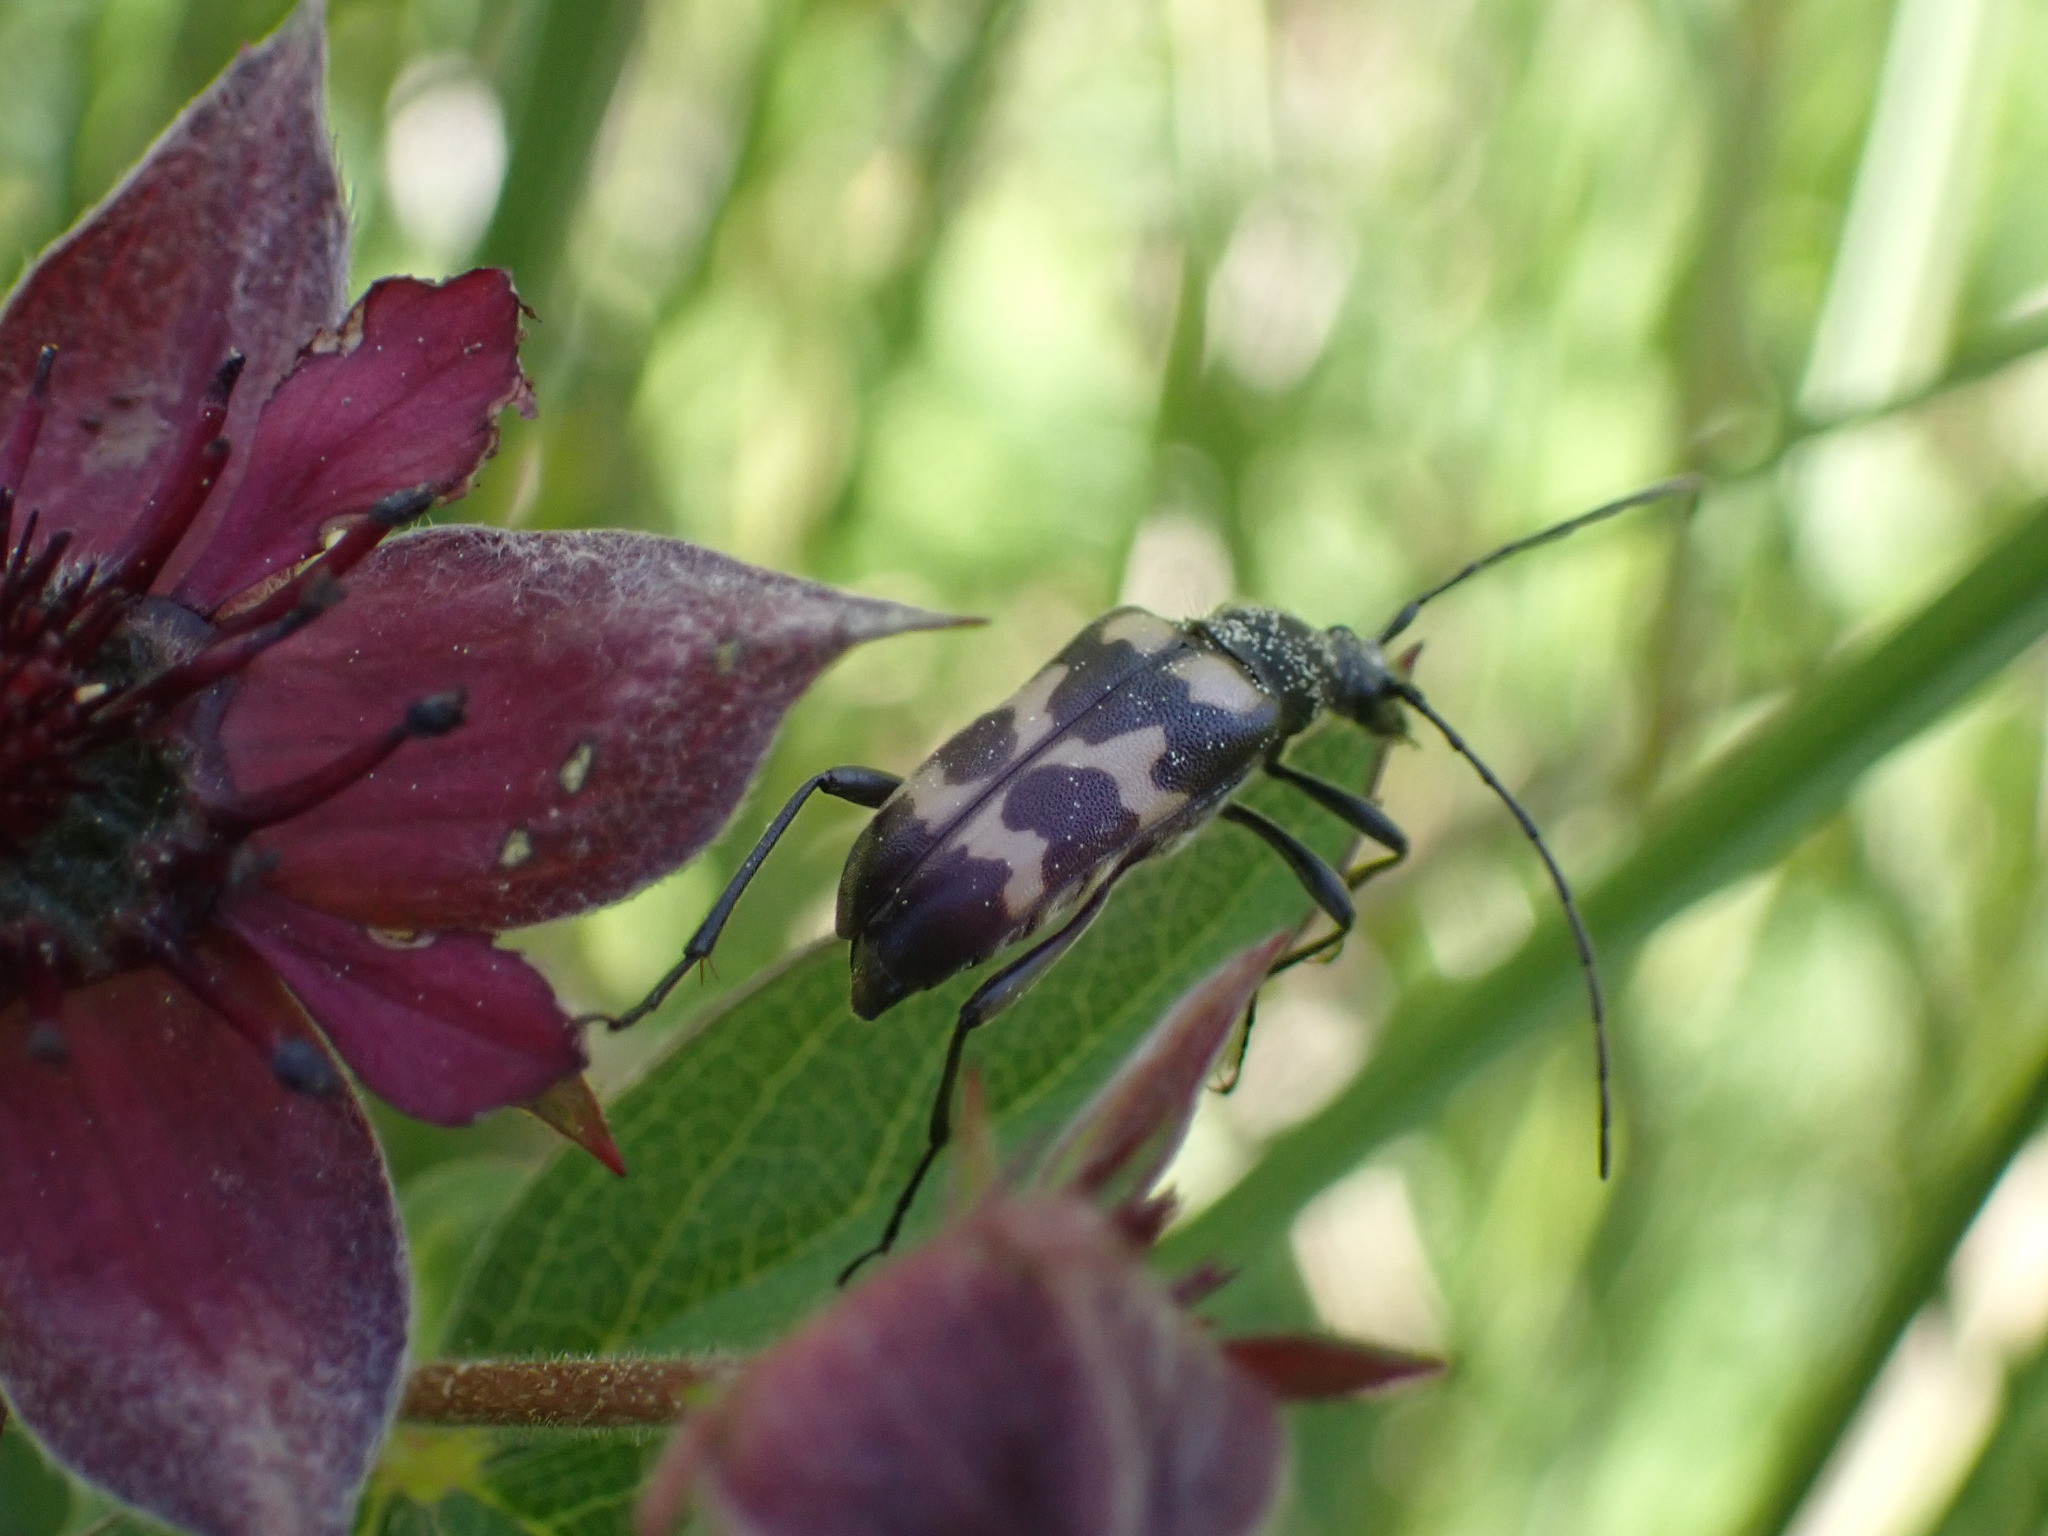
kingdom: Animalia
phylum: Arthropoda
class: Insecta
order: Coleoptera
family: Cerambycidae
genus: Judolia
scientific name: Judolia sexmaculata
